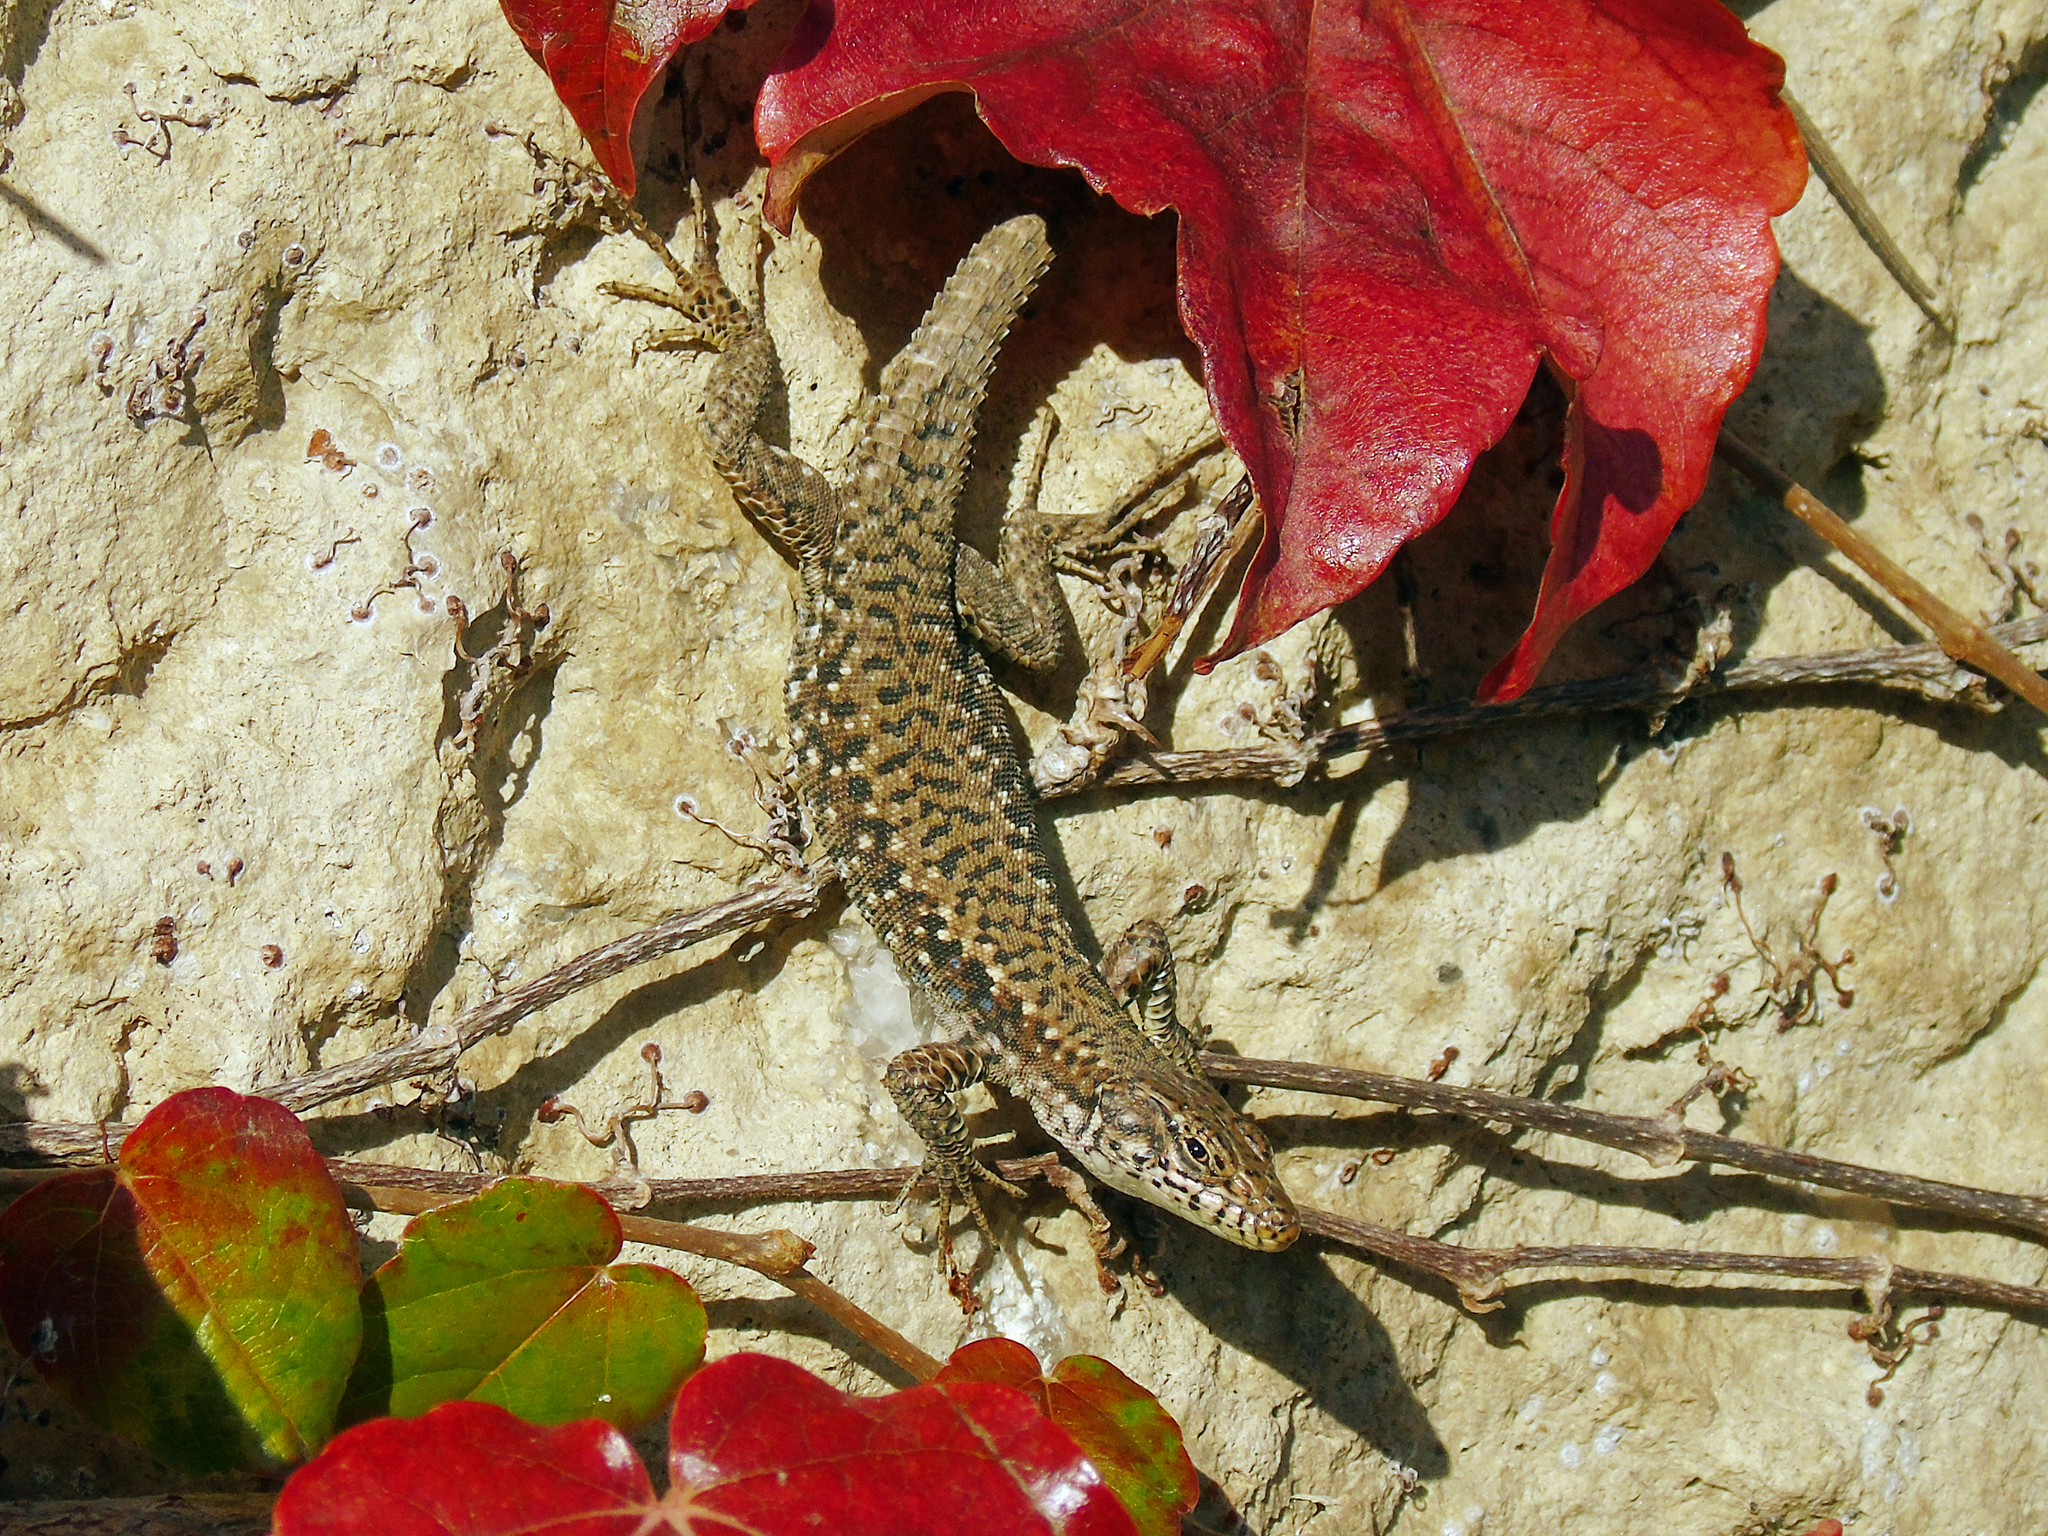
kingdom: Animalia
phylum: Chordata
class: Squamata
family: Lacertidae
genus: Darevskia
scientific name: Darevskia rudis
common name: Spiny-tailed lizard
